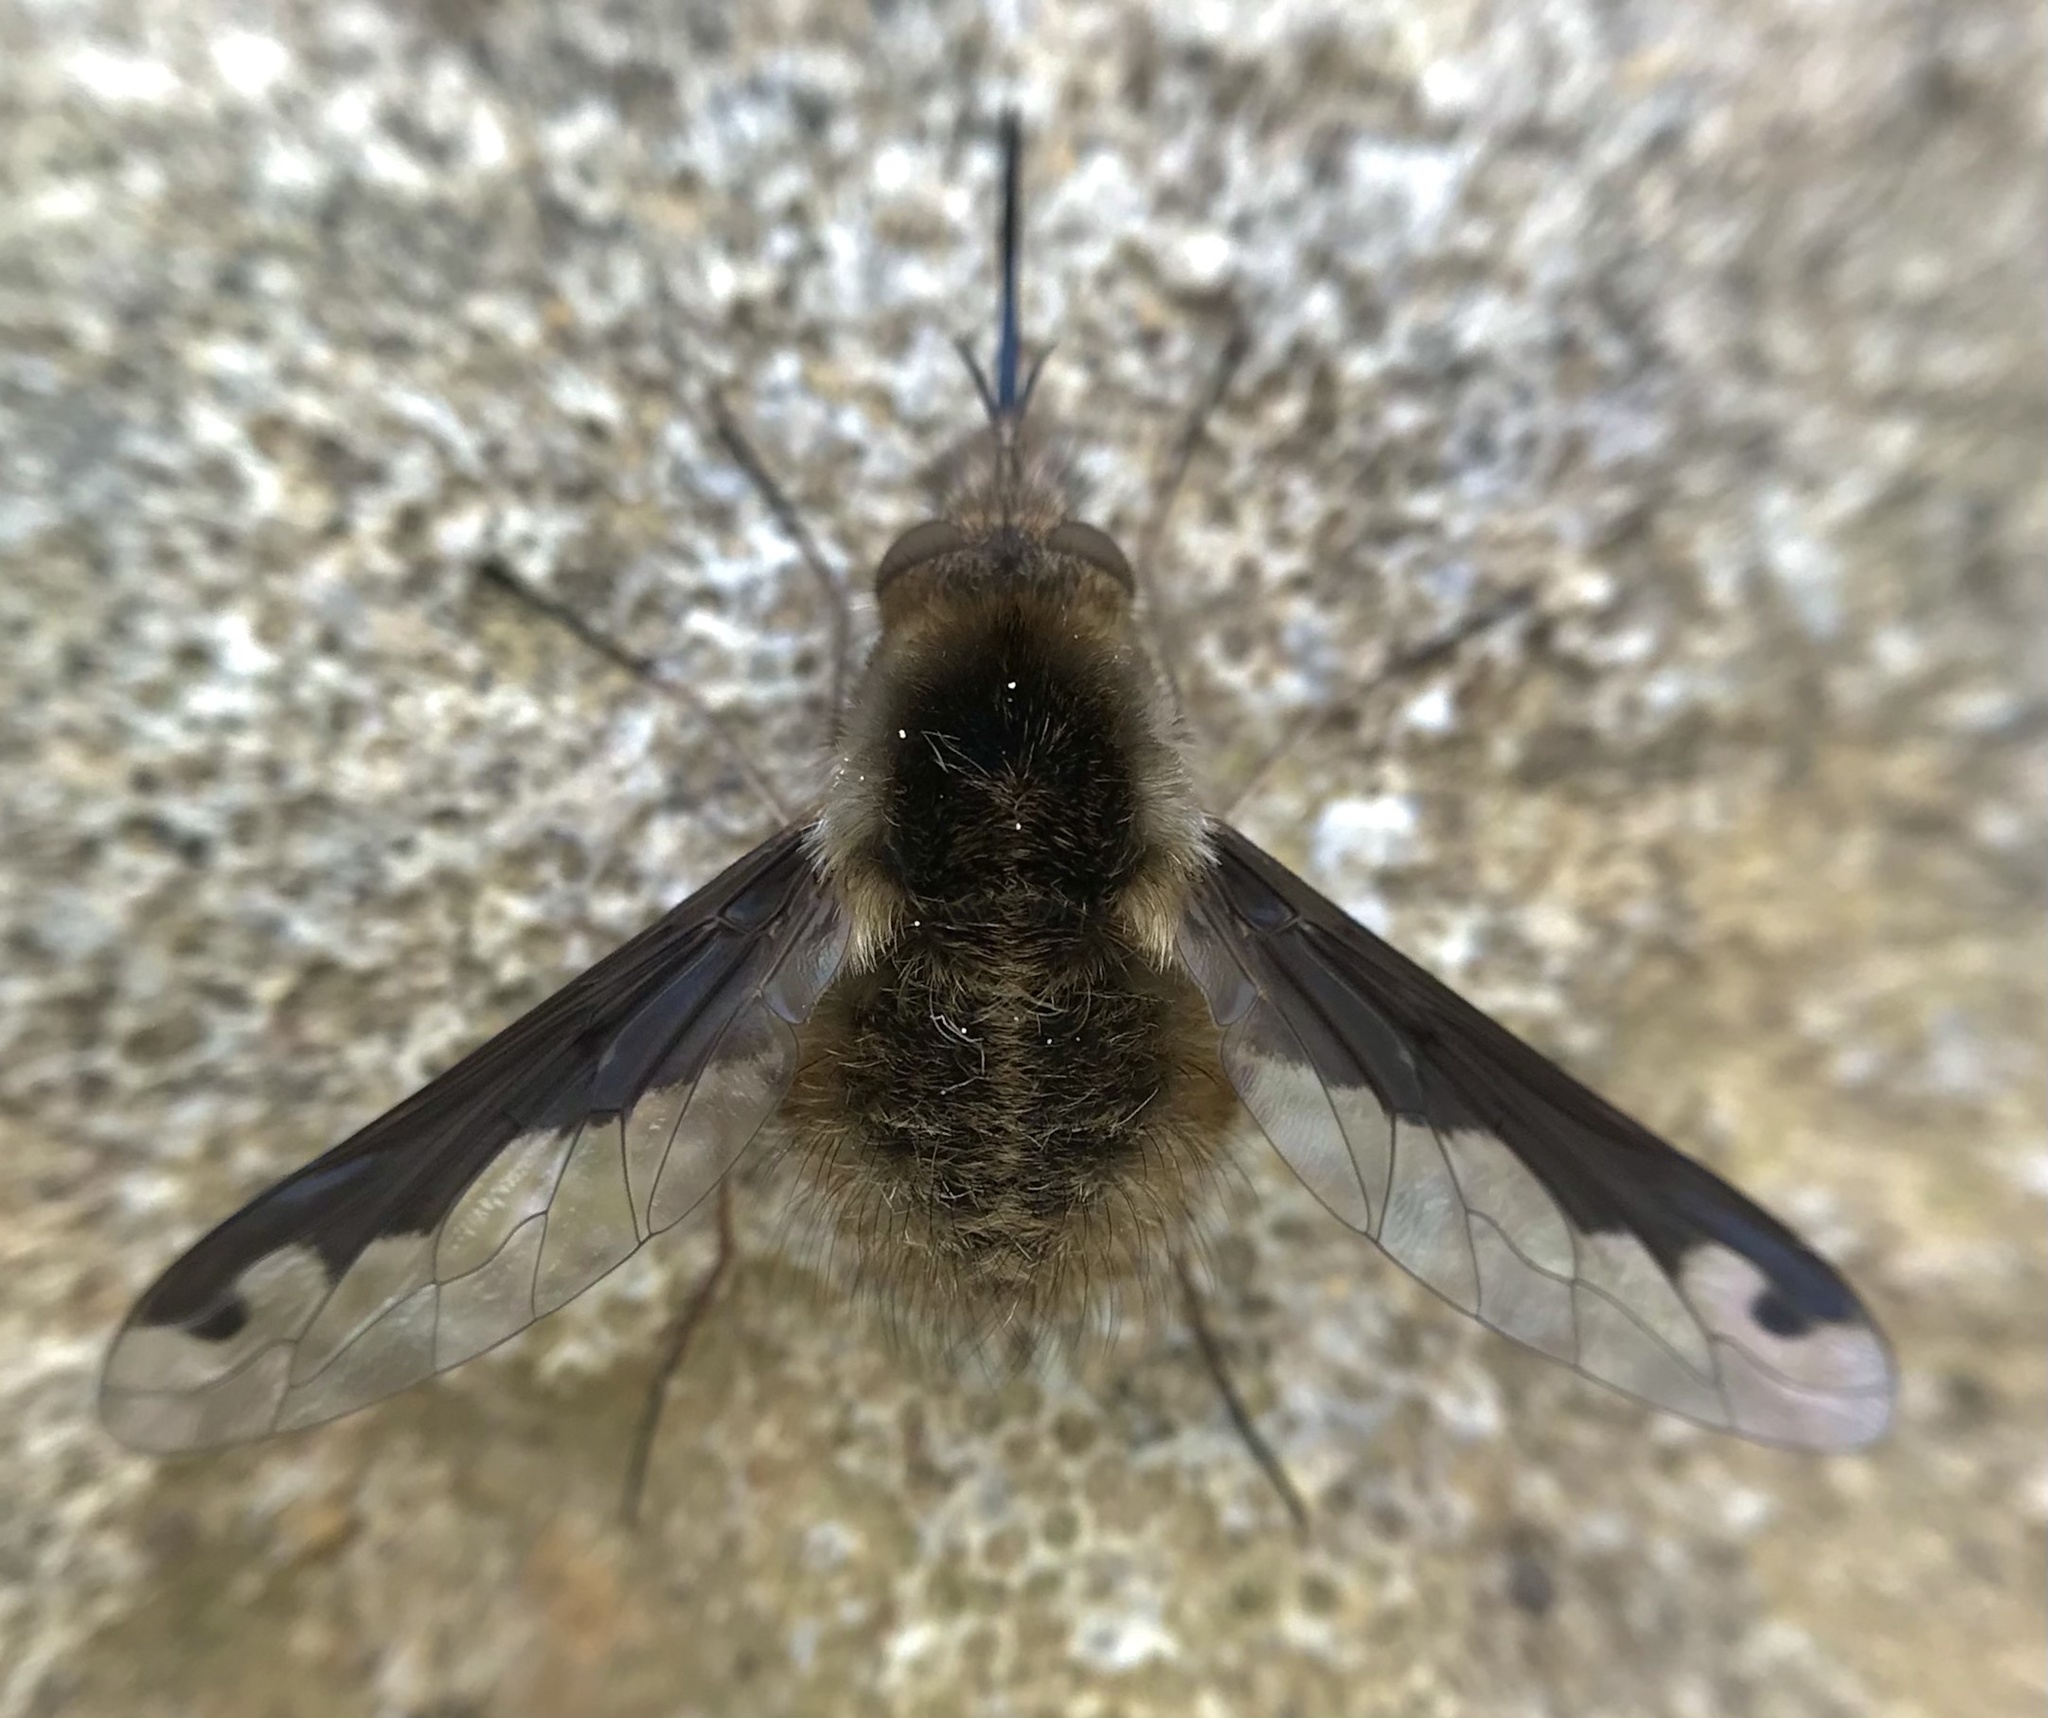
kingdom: Animalia
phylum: Arthropoda
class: Insecta
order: Diptera
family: Bombyliidae
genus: Bombylius
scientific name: Bombylius major
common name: Bee fly
